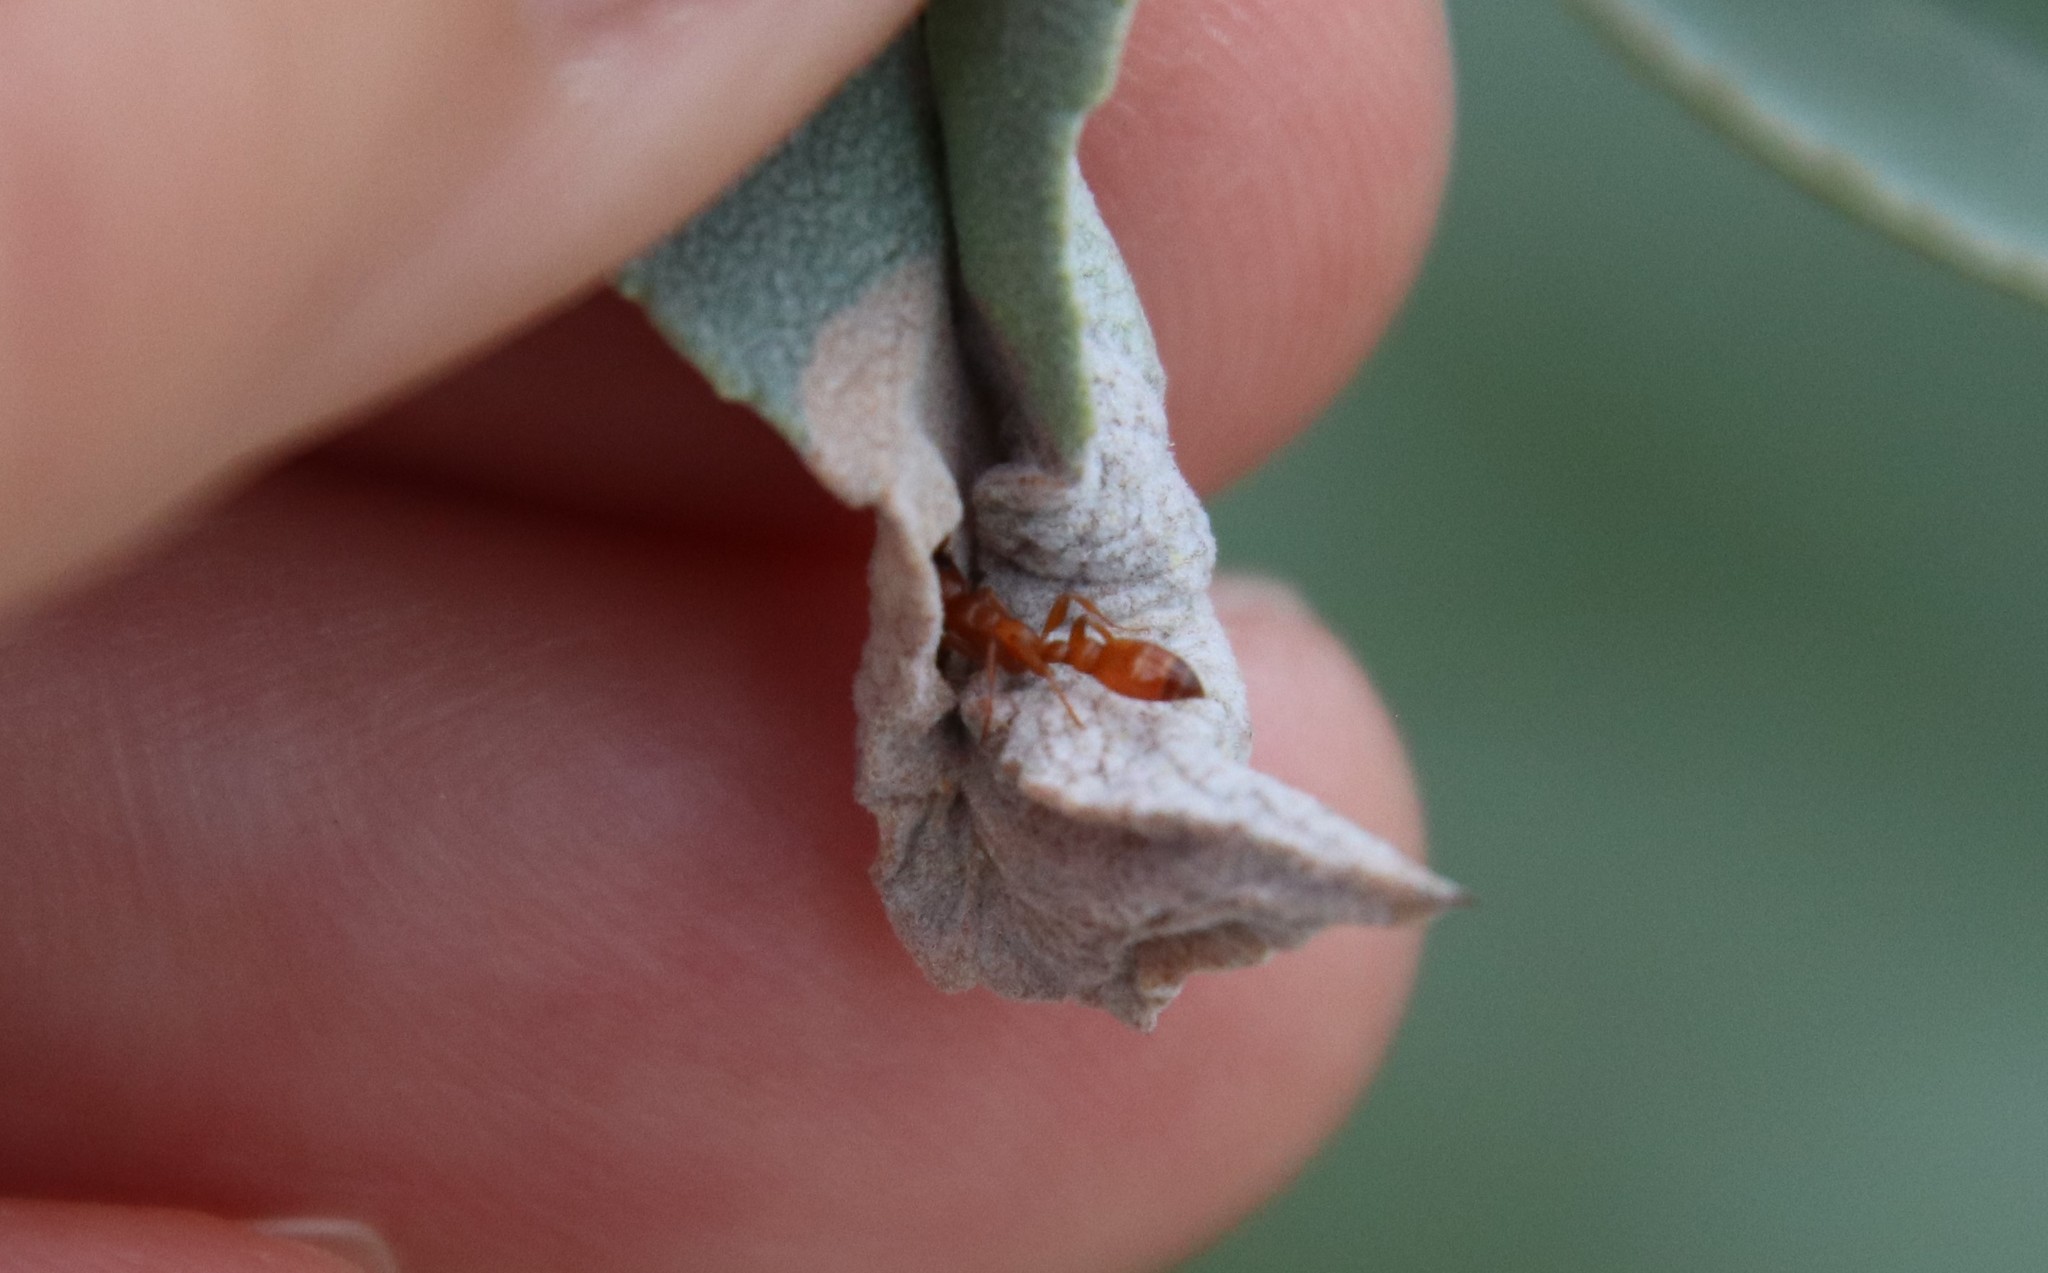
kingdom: Animalia
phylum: Arthropoda
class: Insecta
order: Hymenoptera
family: Formicidae
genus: Pseudomyrmex
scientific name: Pseudomyrmex apache
